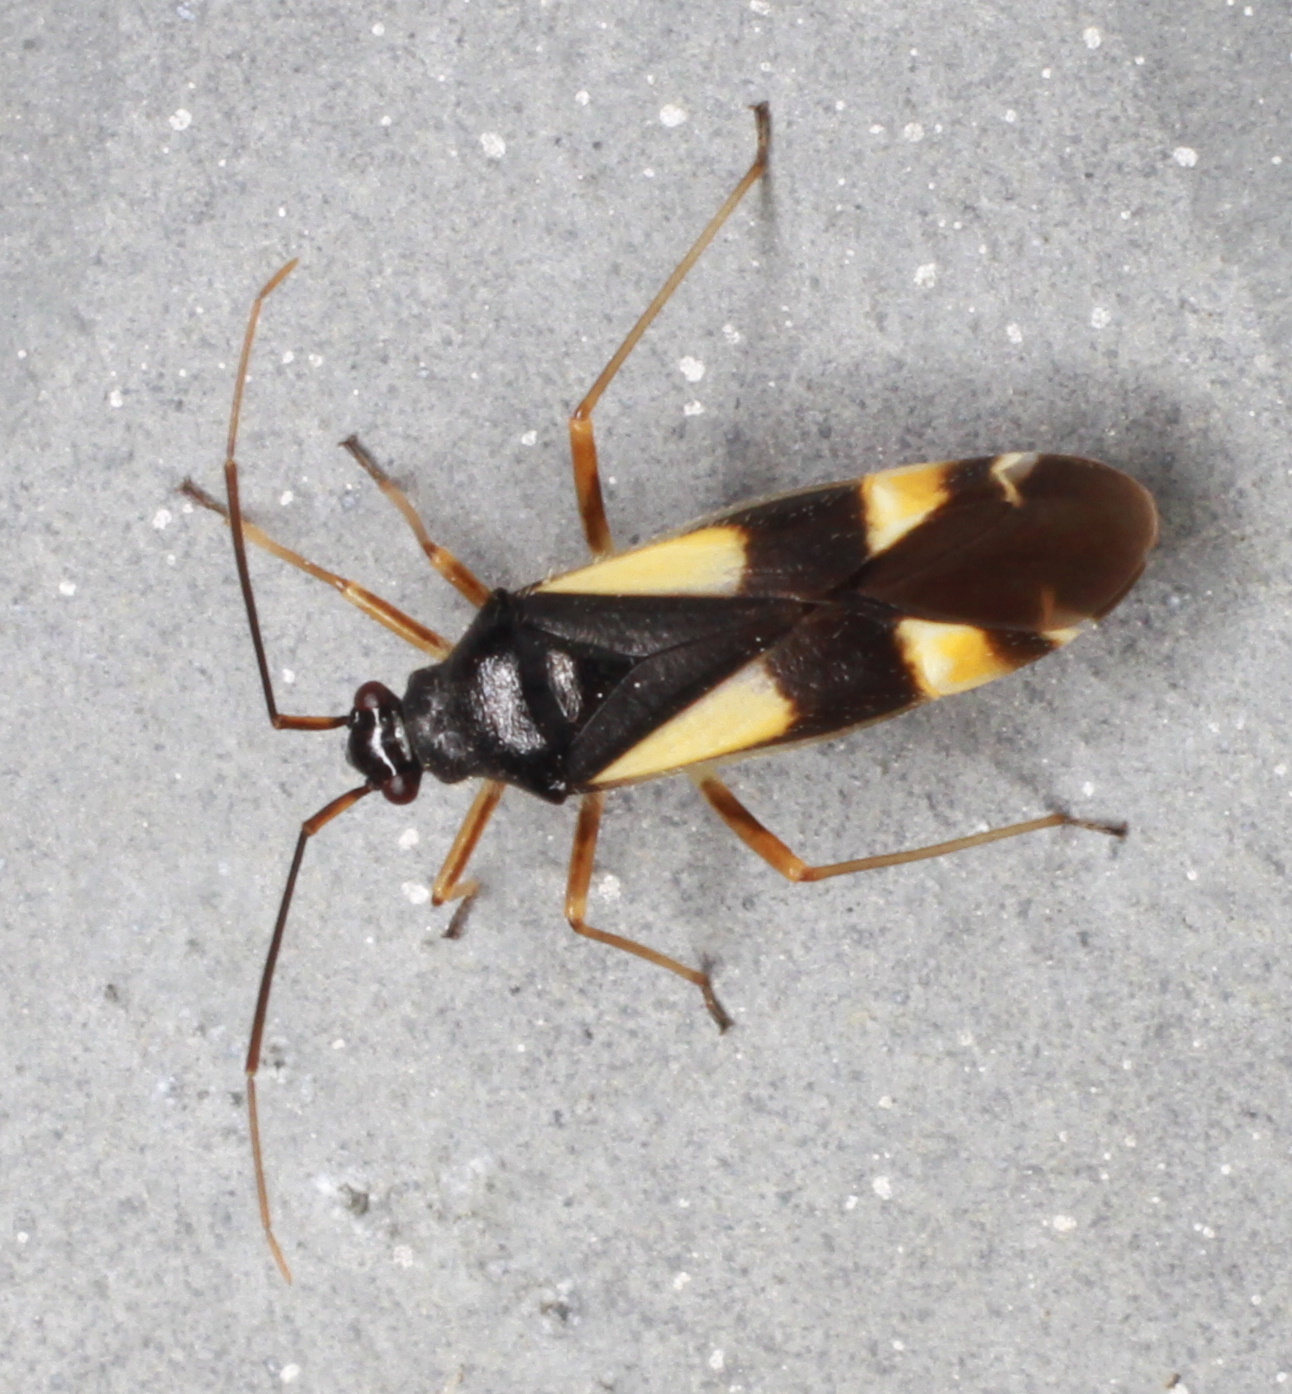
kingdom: Animalia
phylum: Arthropoda
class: Insecta
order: Hemiptera
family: Miridae
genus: Dryophilocoris
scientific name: Dryophilocoris flavoquadrimaculatus
